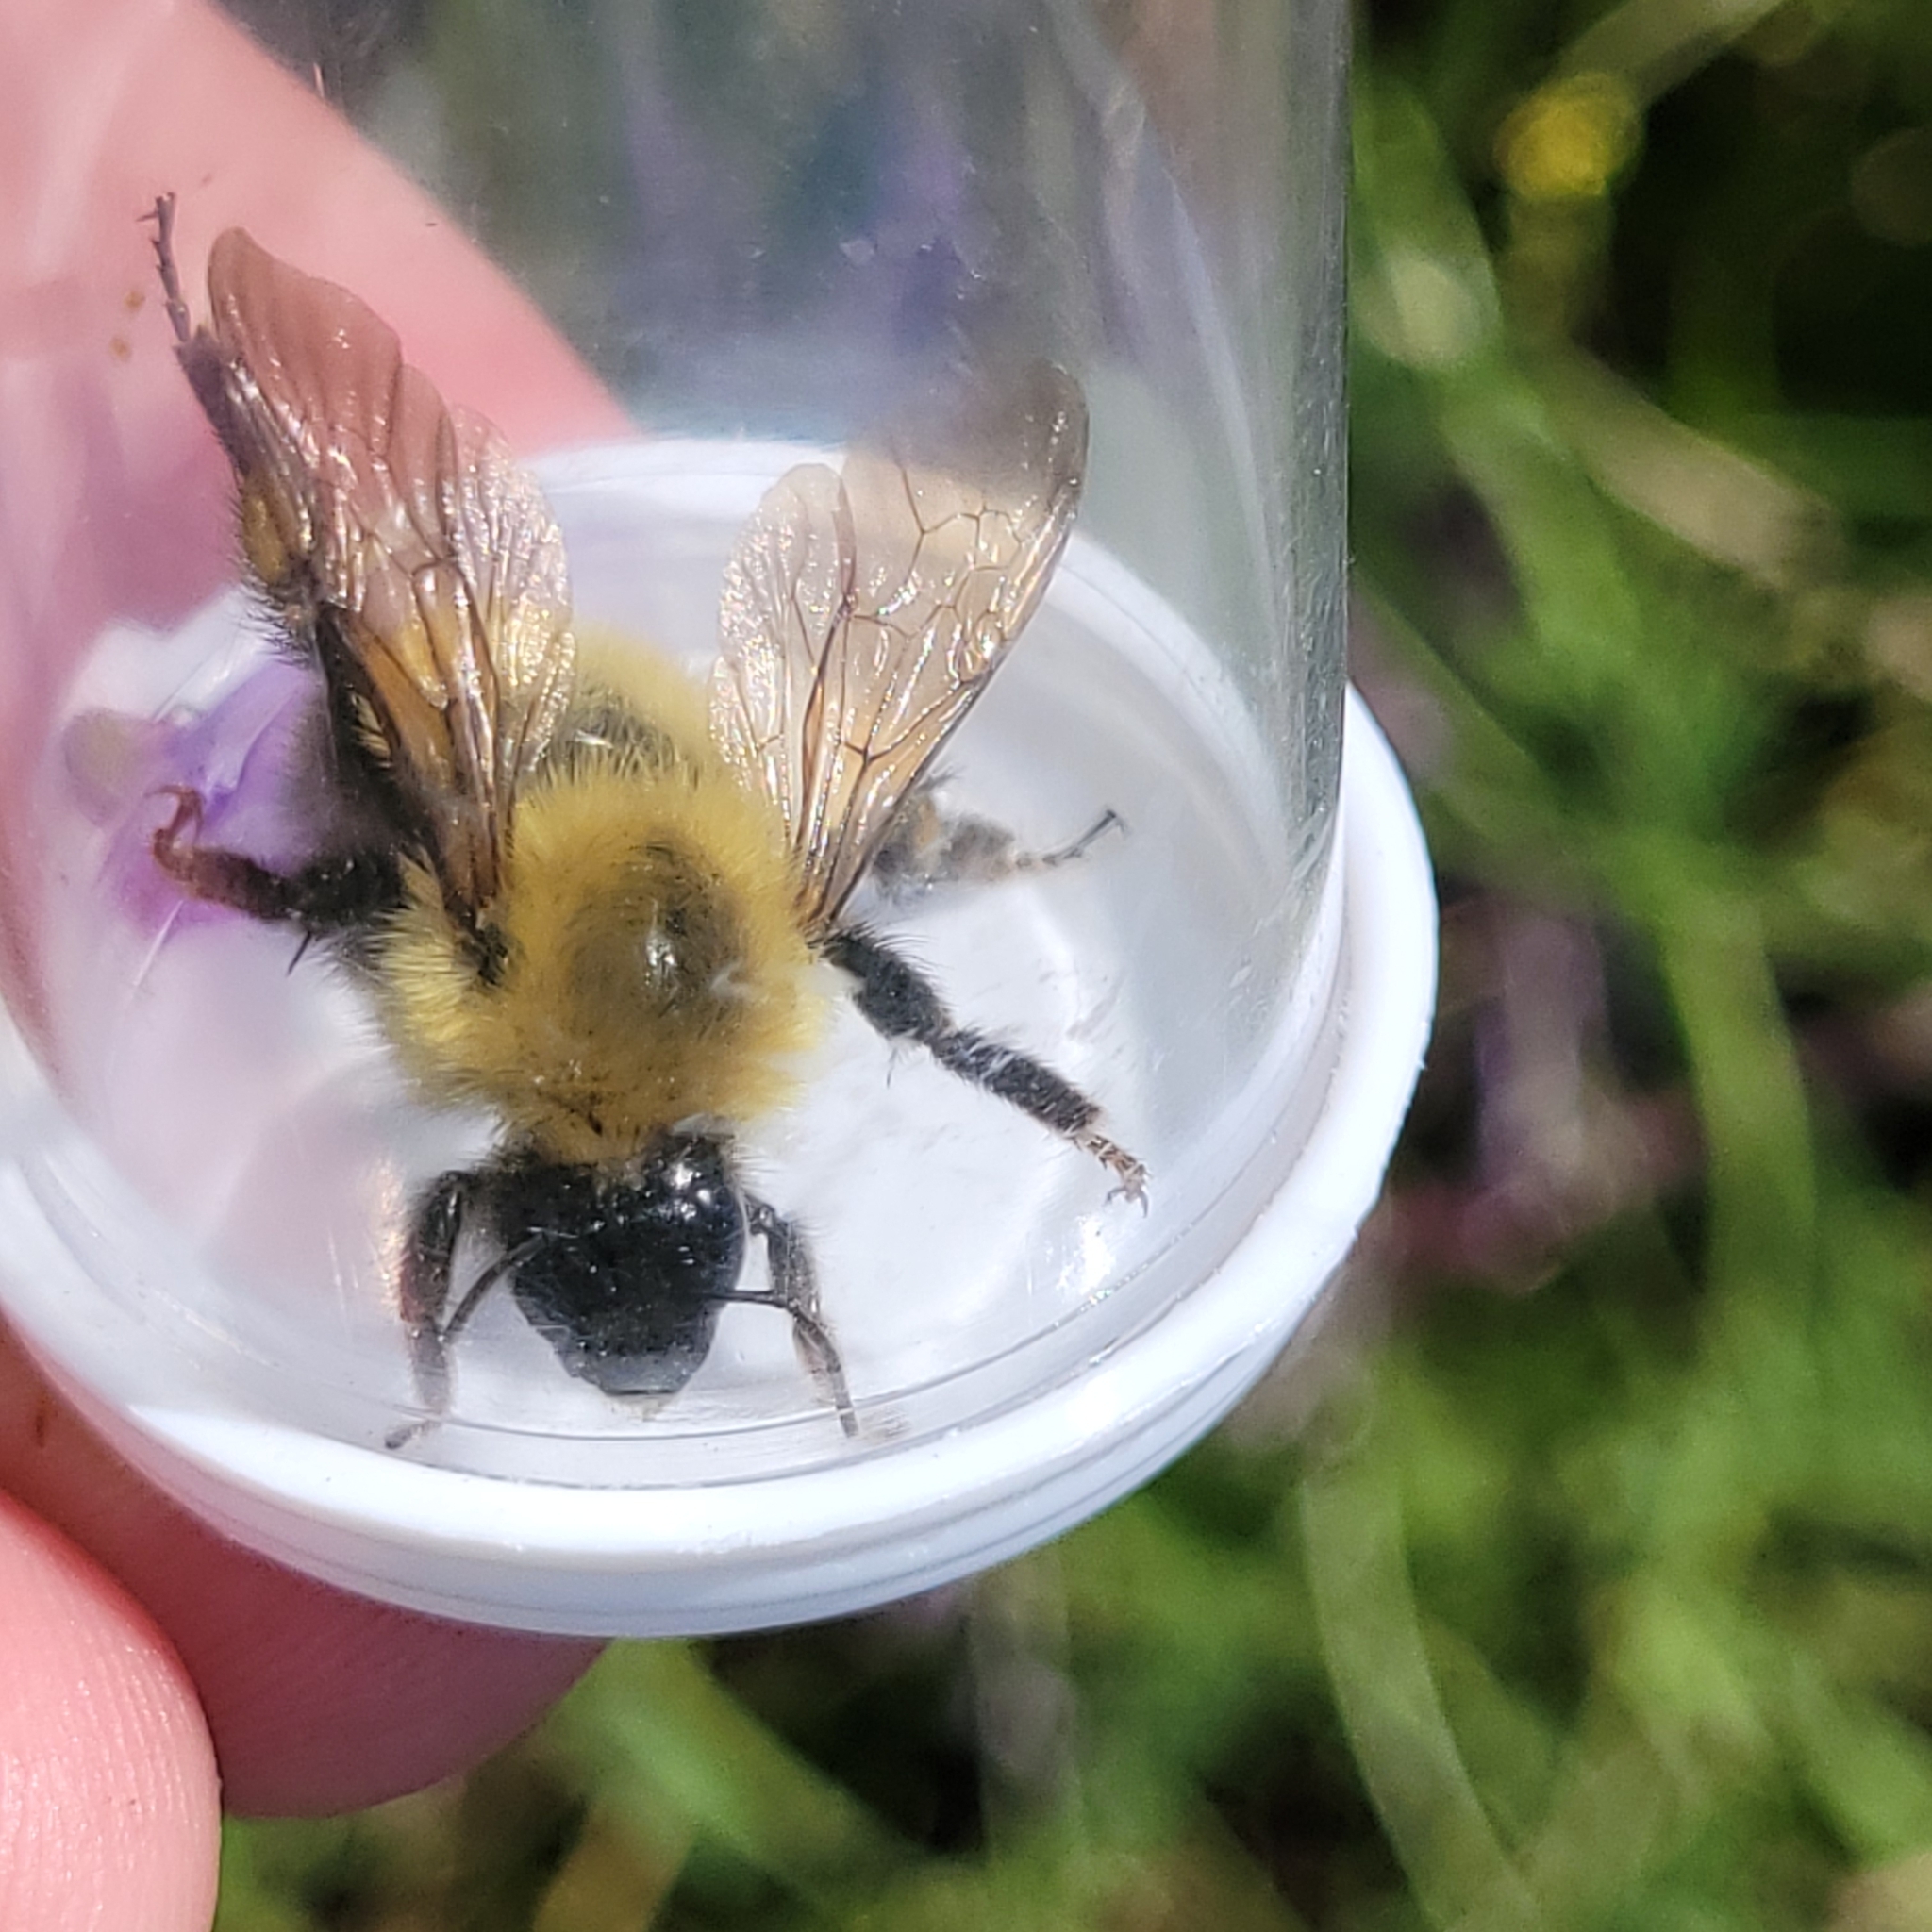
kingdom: Animalia
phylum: Arthropoda
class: Insecta
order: Hymenoptera
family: Apidae
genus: Bombus
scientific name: Bombus perplexus
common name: Confusing bumble bee
